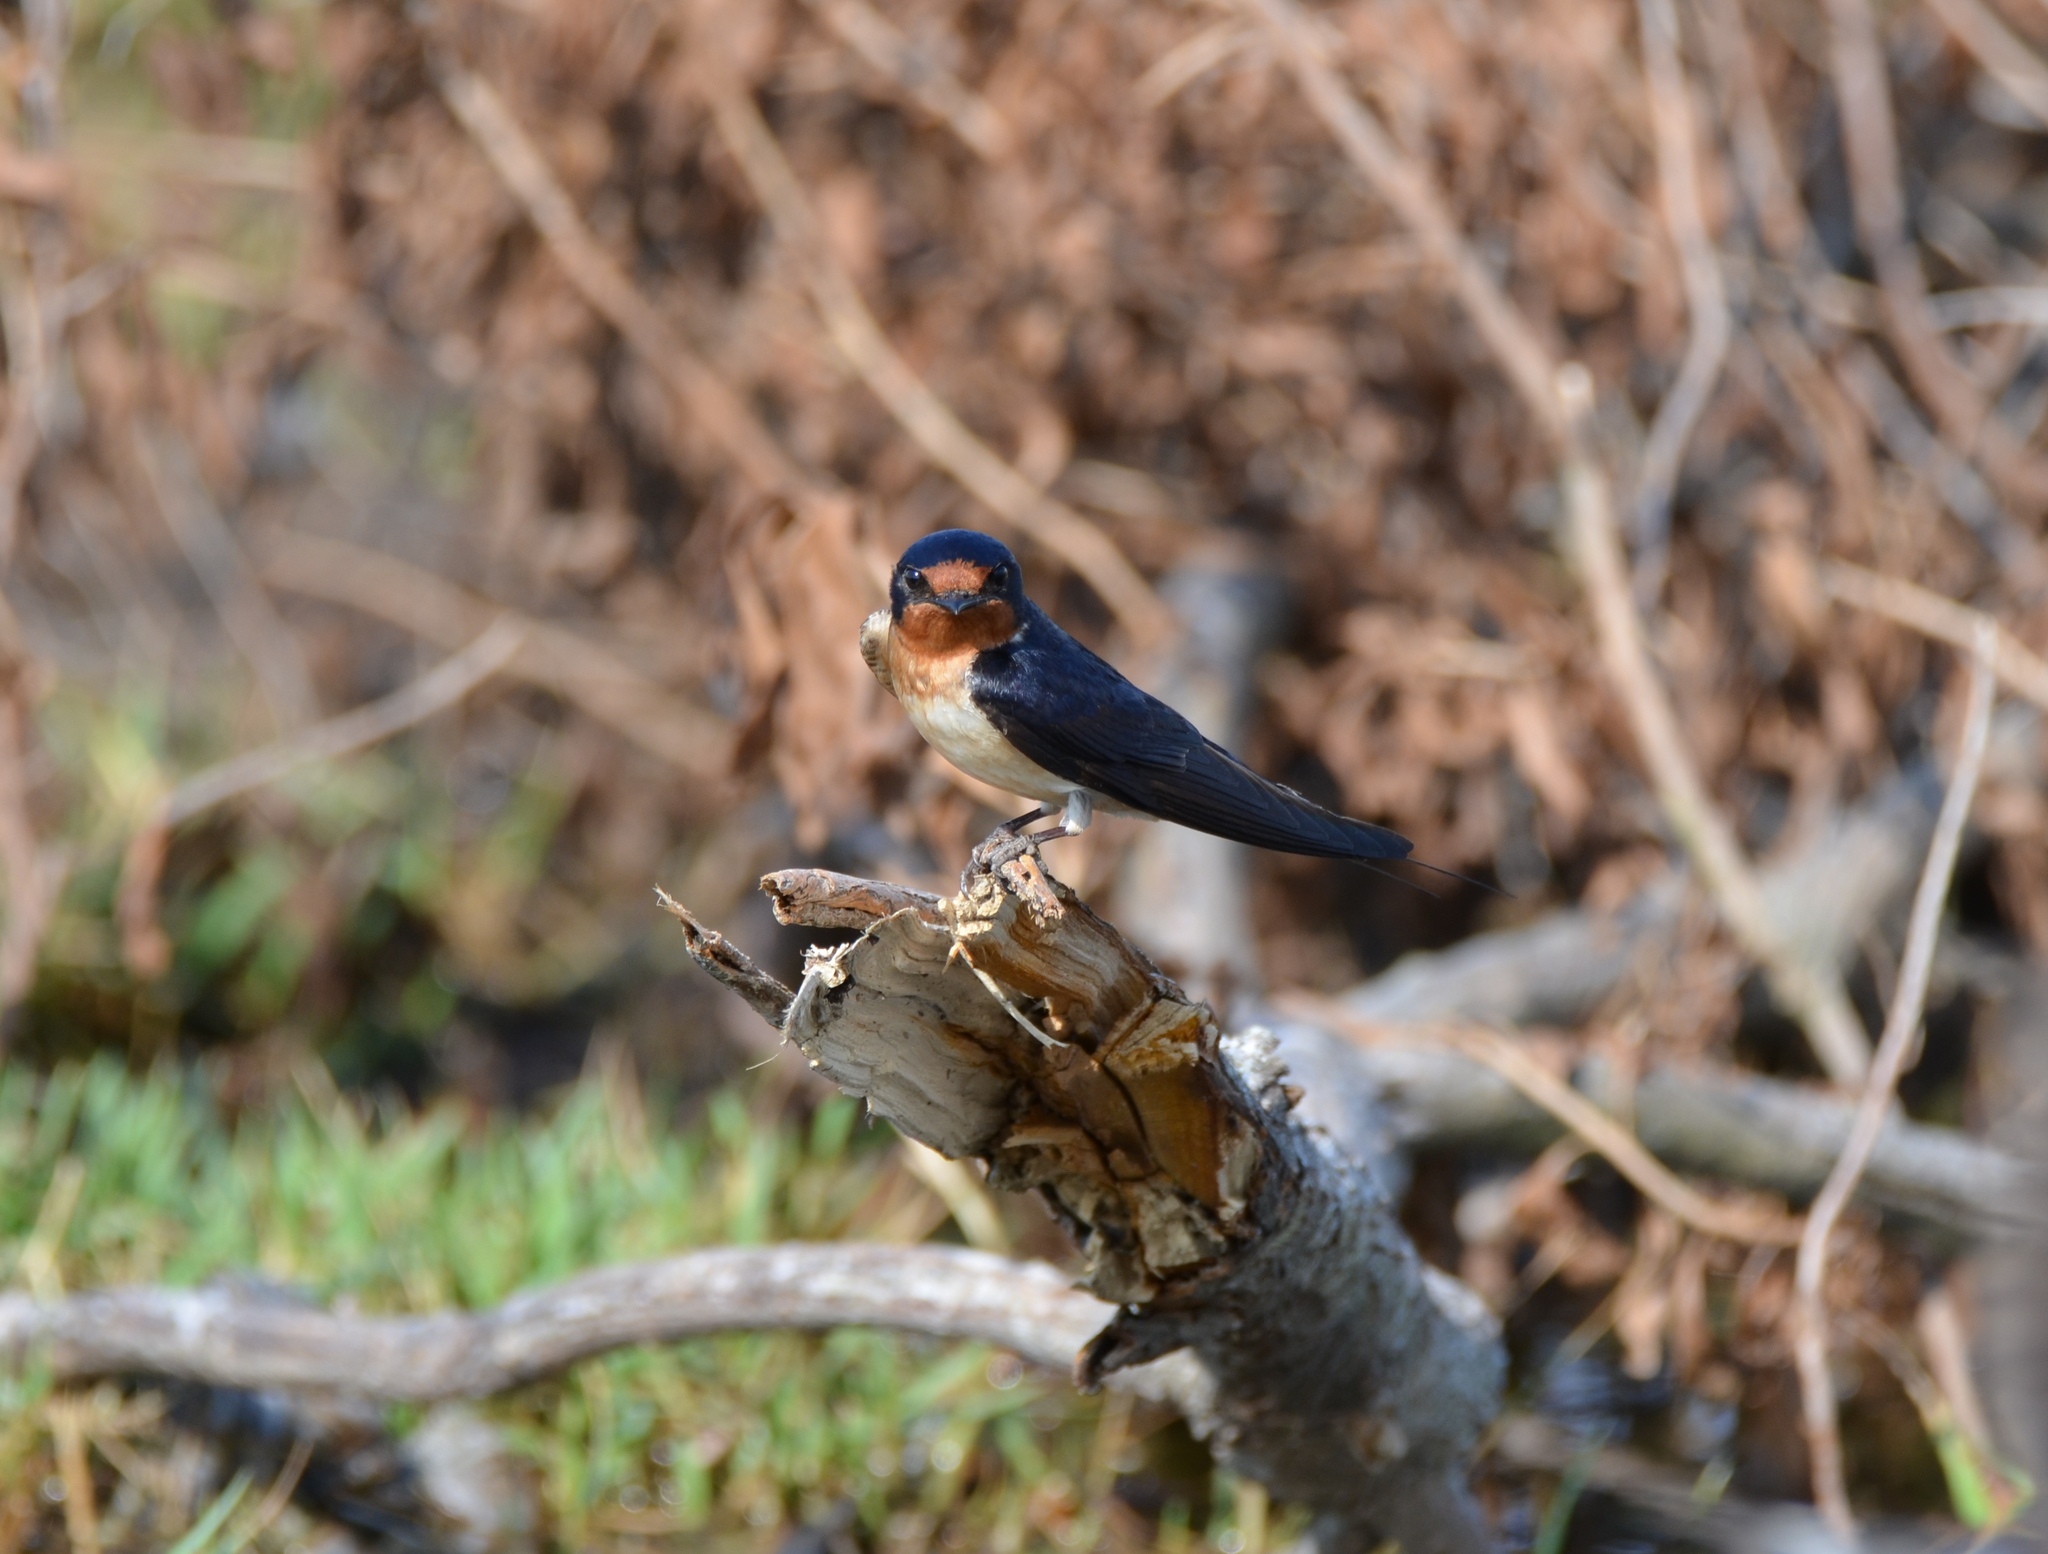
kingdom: Animalia
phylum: Chordata
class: Aves
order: Passeriformes
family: Hirundinidae
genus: Hirundo
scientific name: Hirundo rustica
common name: Barn swallow
